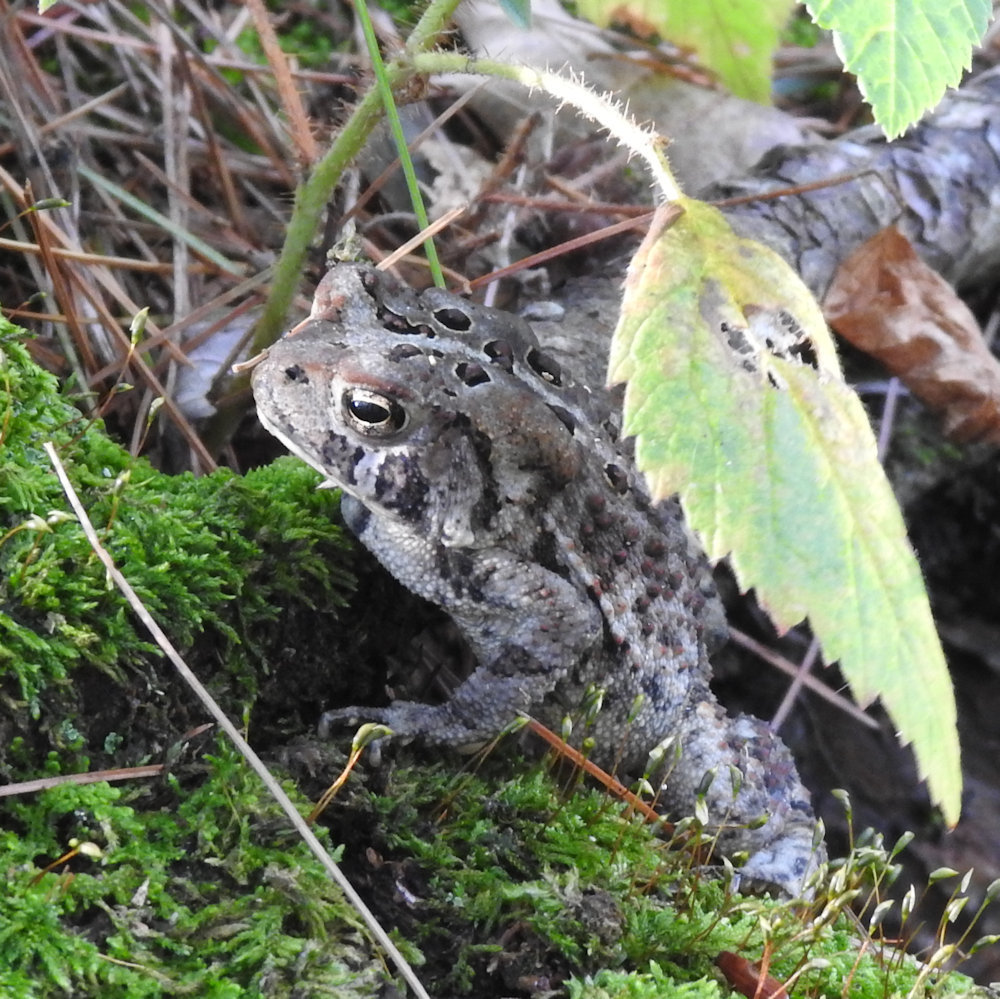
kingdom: Animalia
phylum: Chordata
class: Amphibia
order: Anura
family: Bufonidae
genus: Anaxyrus
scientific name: Anaxyrus americanus
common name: American toad
